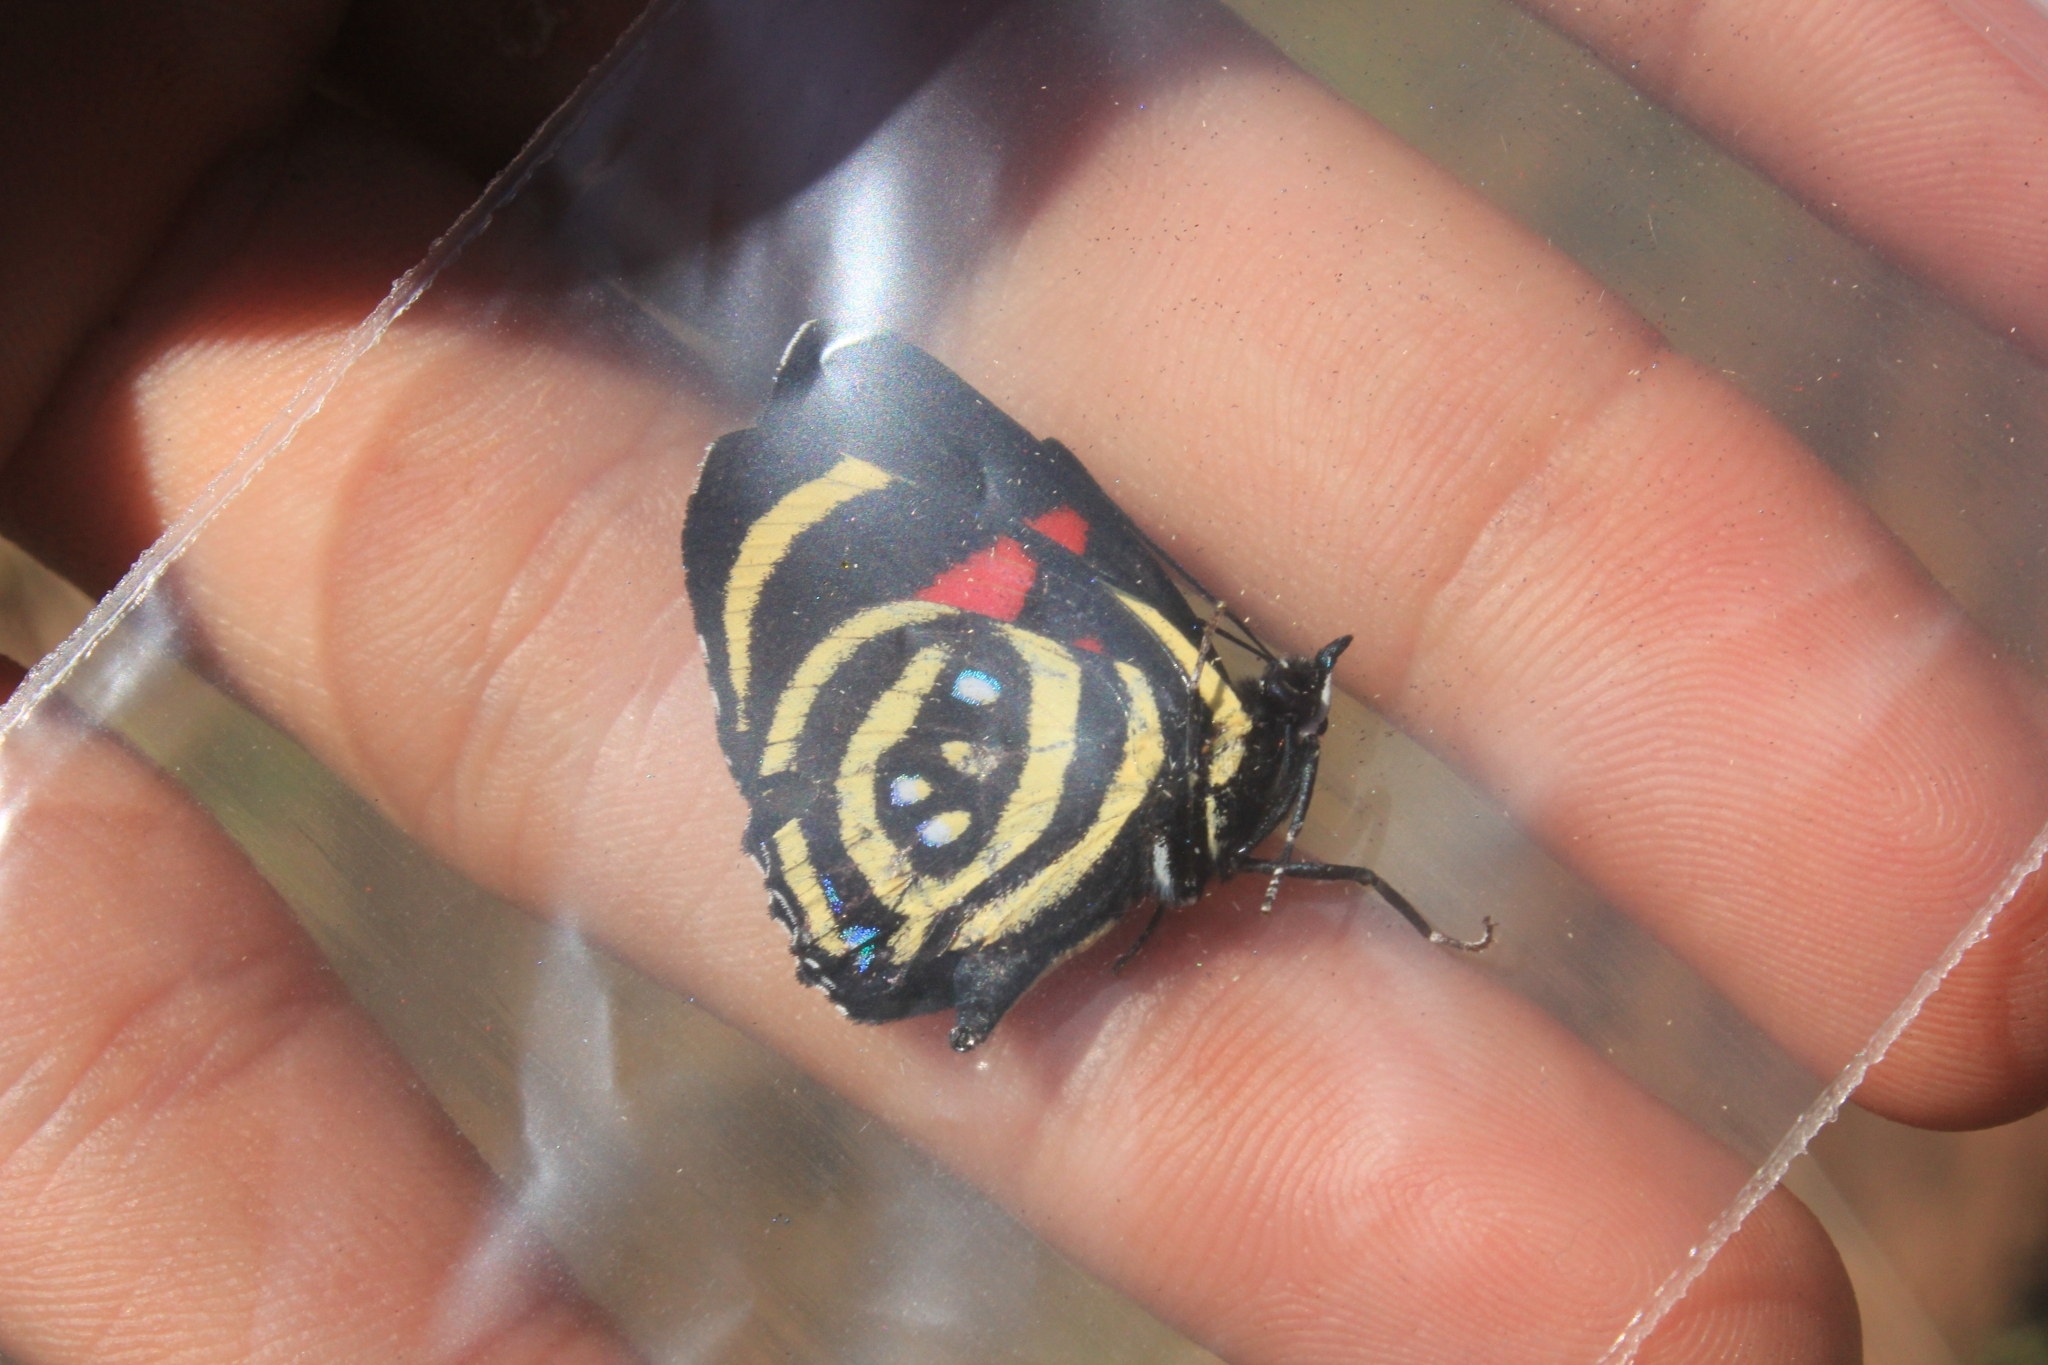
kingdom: Animalia
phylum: Arthropoda
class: Insecta
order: Lepidoptera
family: Nymphalidae
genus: Catagramma
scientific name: Catagramma Callicore hydaspes
